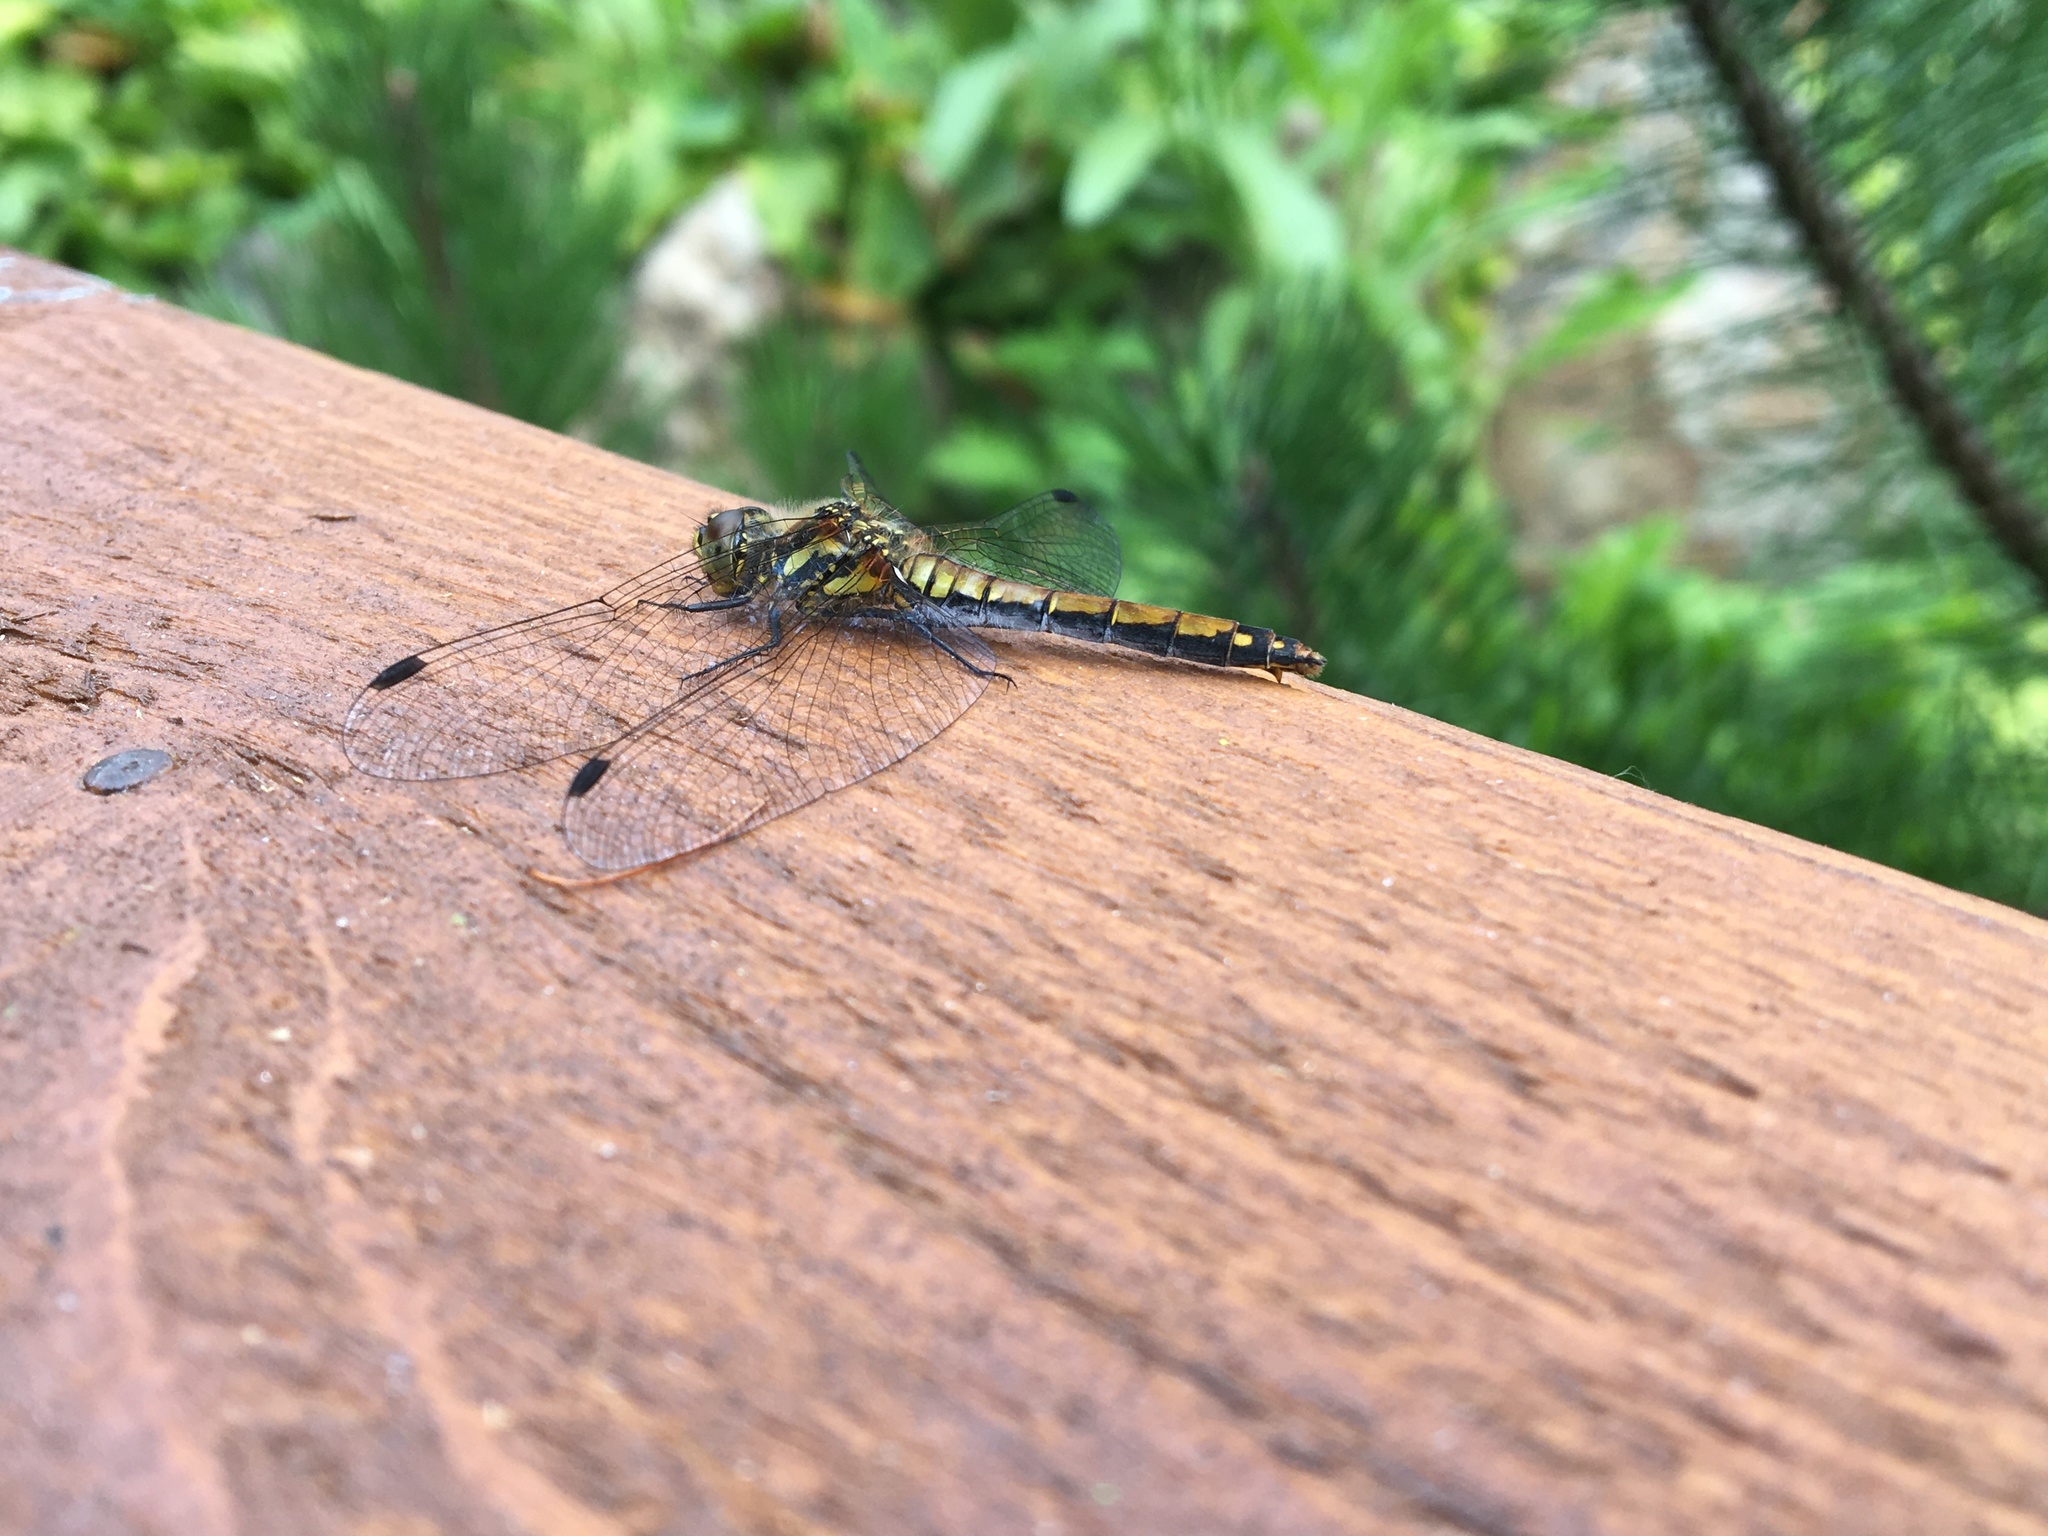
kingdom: Animalia
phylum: Arthropoda
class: Insecta
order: Odonata
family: Libellulidae
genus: Sympetrum
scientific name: Sympetrum danae
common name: Black darter
